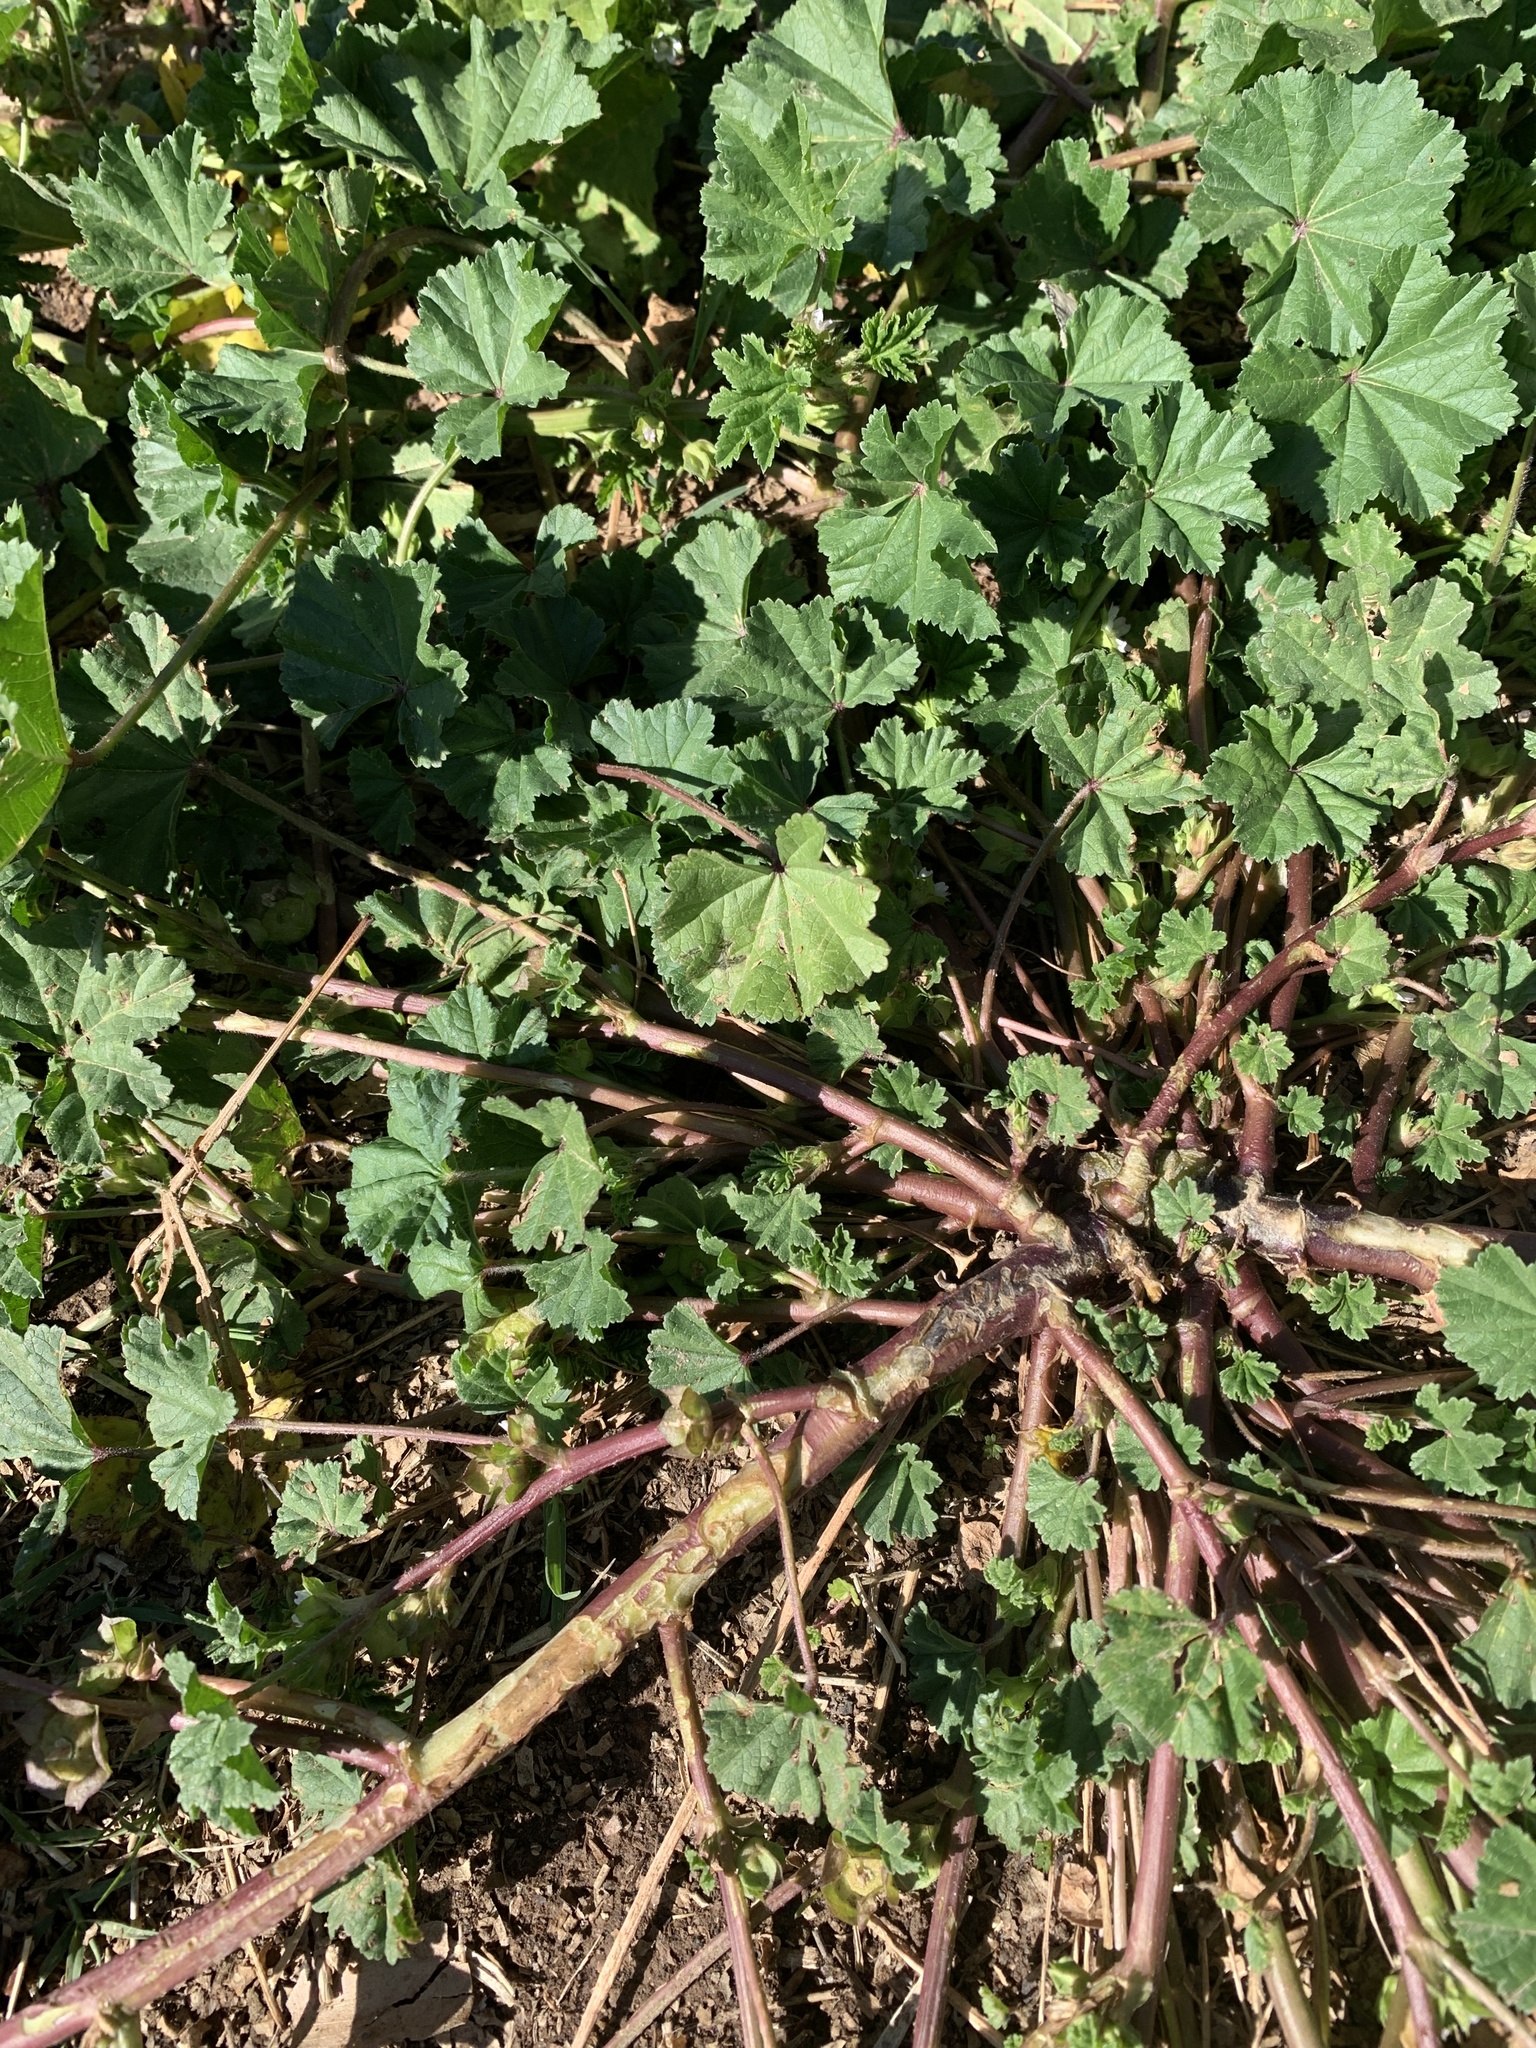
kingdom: Plantae
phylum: Tracheophyta
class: Magnoliopsida
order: Malvales
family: Malvaceae
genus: Malva
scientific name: Malva parviflora
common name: Least mallow
